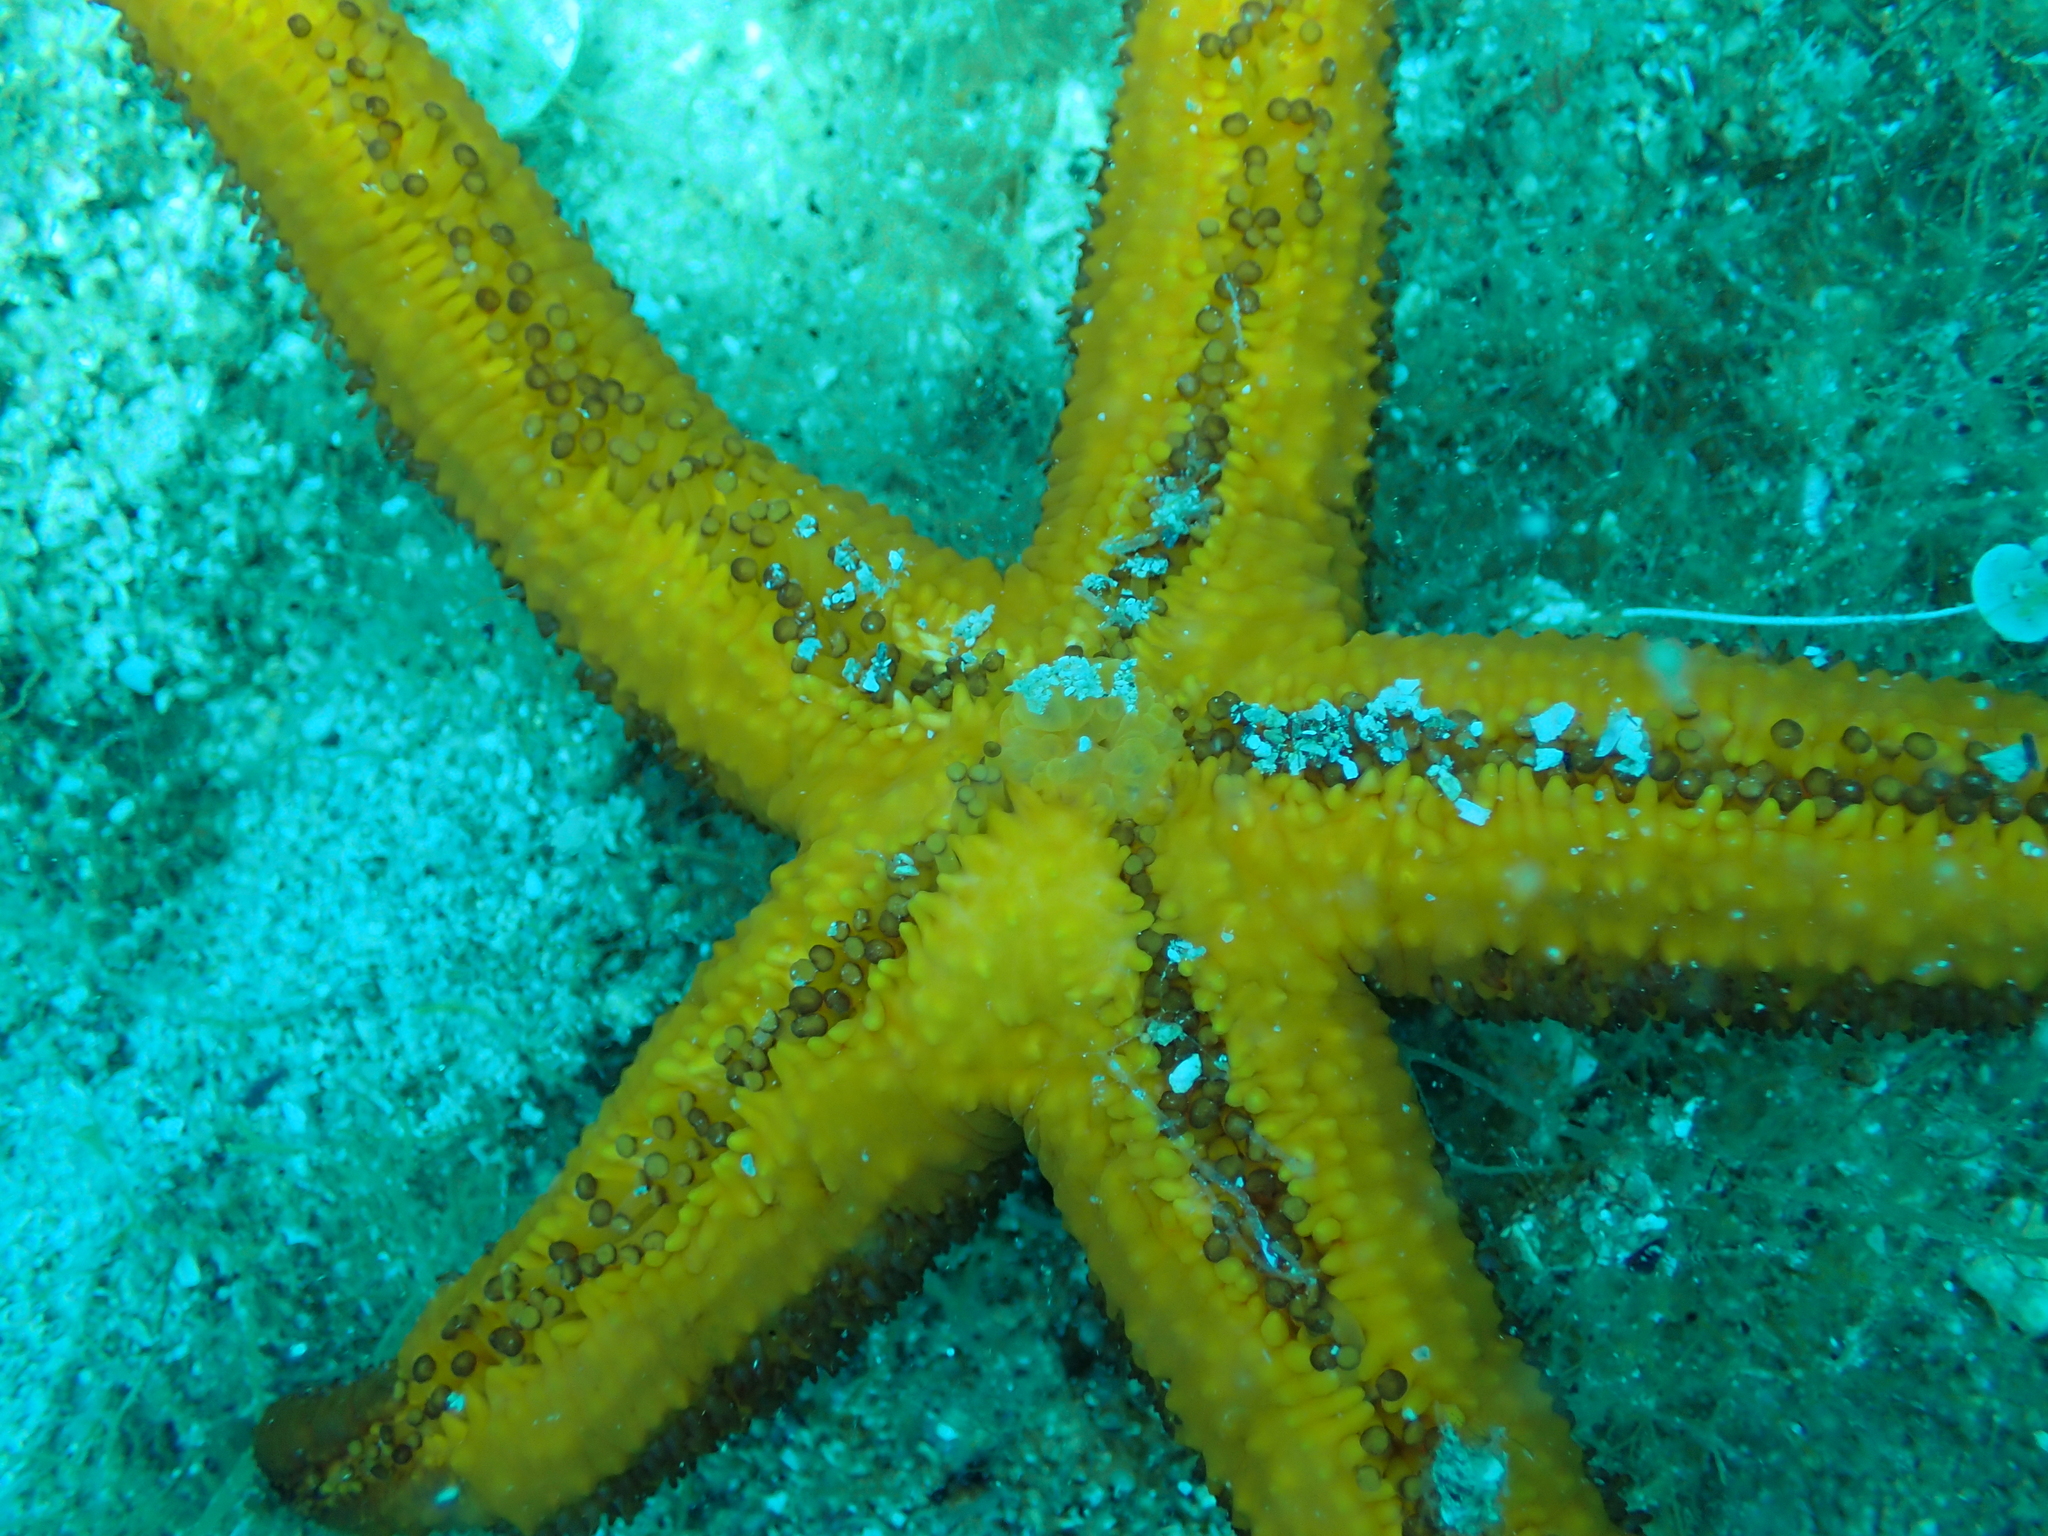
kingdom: Animalia
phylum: Echinodermata
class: Asteroidea
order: Spinulosida
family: Echinasteridae
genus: Echinaster
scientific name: Echinaster sepositus
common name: Red starfish
